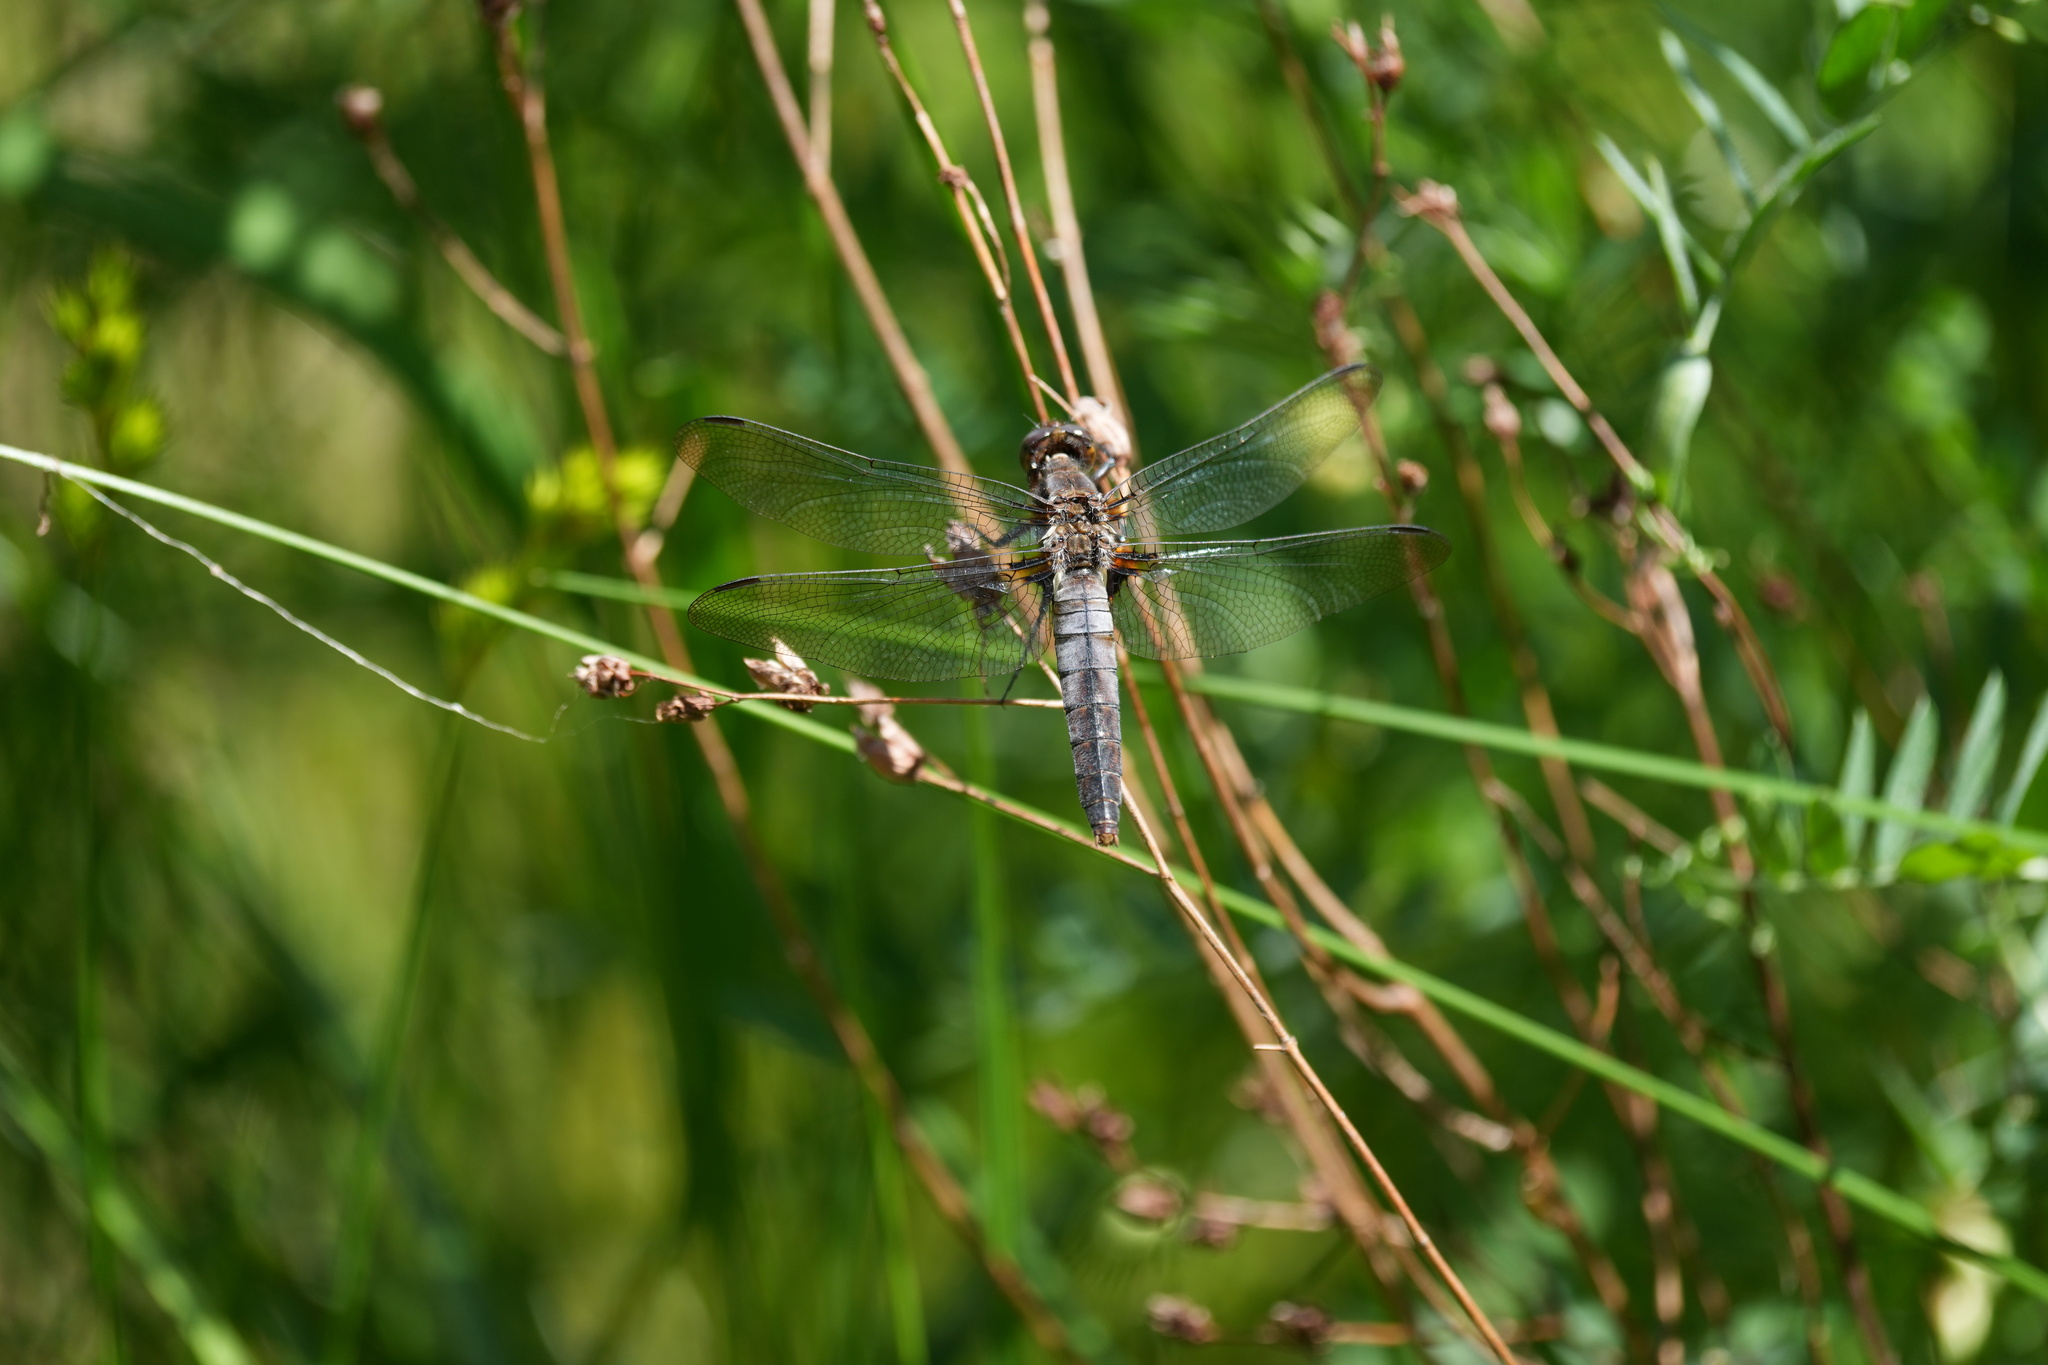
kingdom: Animalia
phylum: Arthropoda
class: Insecta
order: Odonata
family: Libellulidae
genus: Ladona
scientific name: Ladona julia
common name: Chalk-fronted corporal
